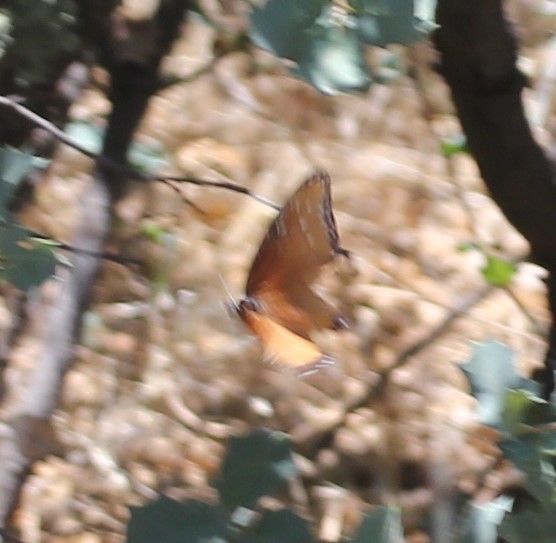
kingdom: Animalia
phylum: Arthropoda
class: Insecta
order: Lepidoptera
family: Nymphalidae
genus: Danaus
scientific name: Danaus gilippus
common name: Queen
